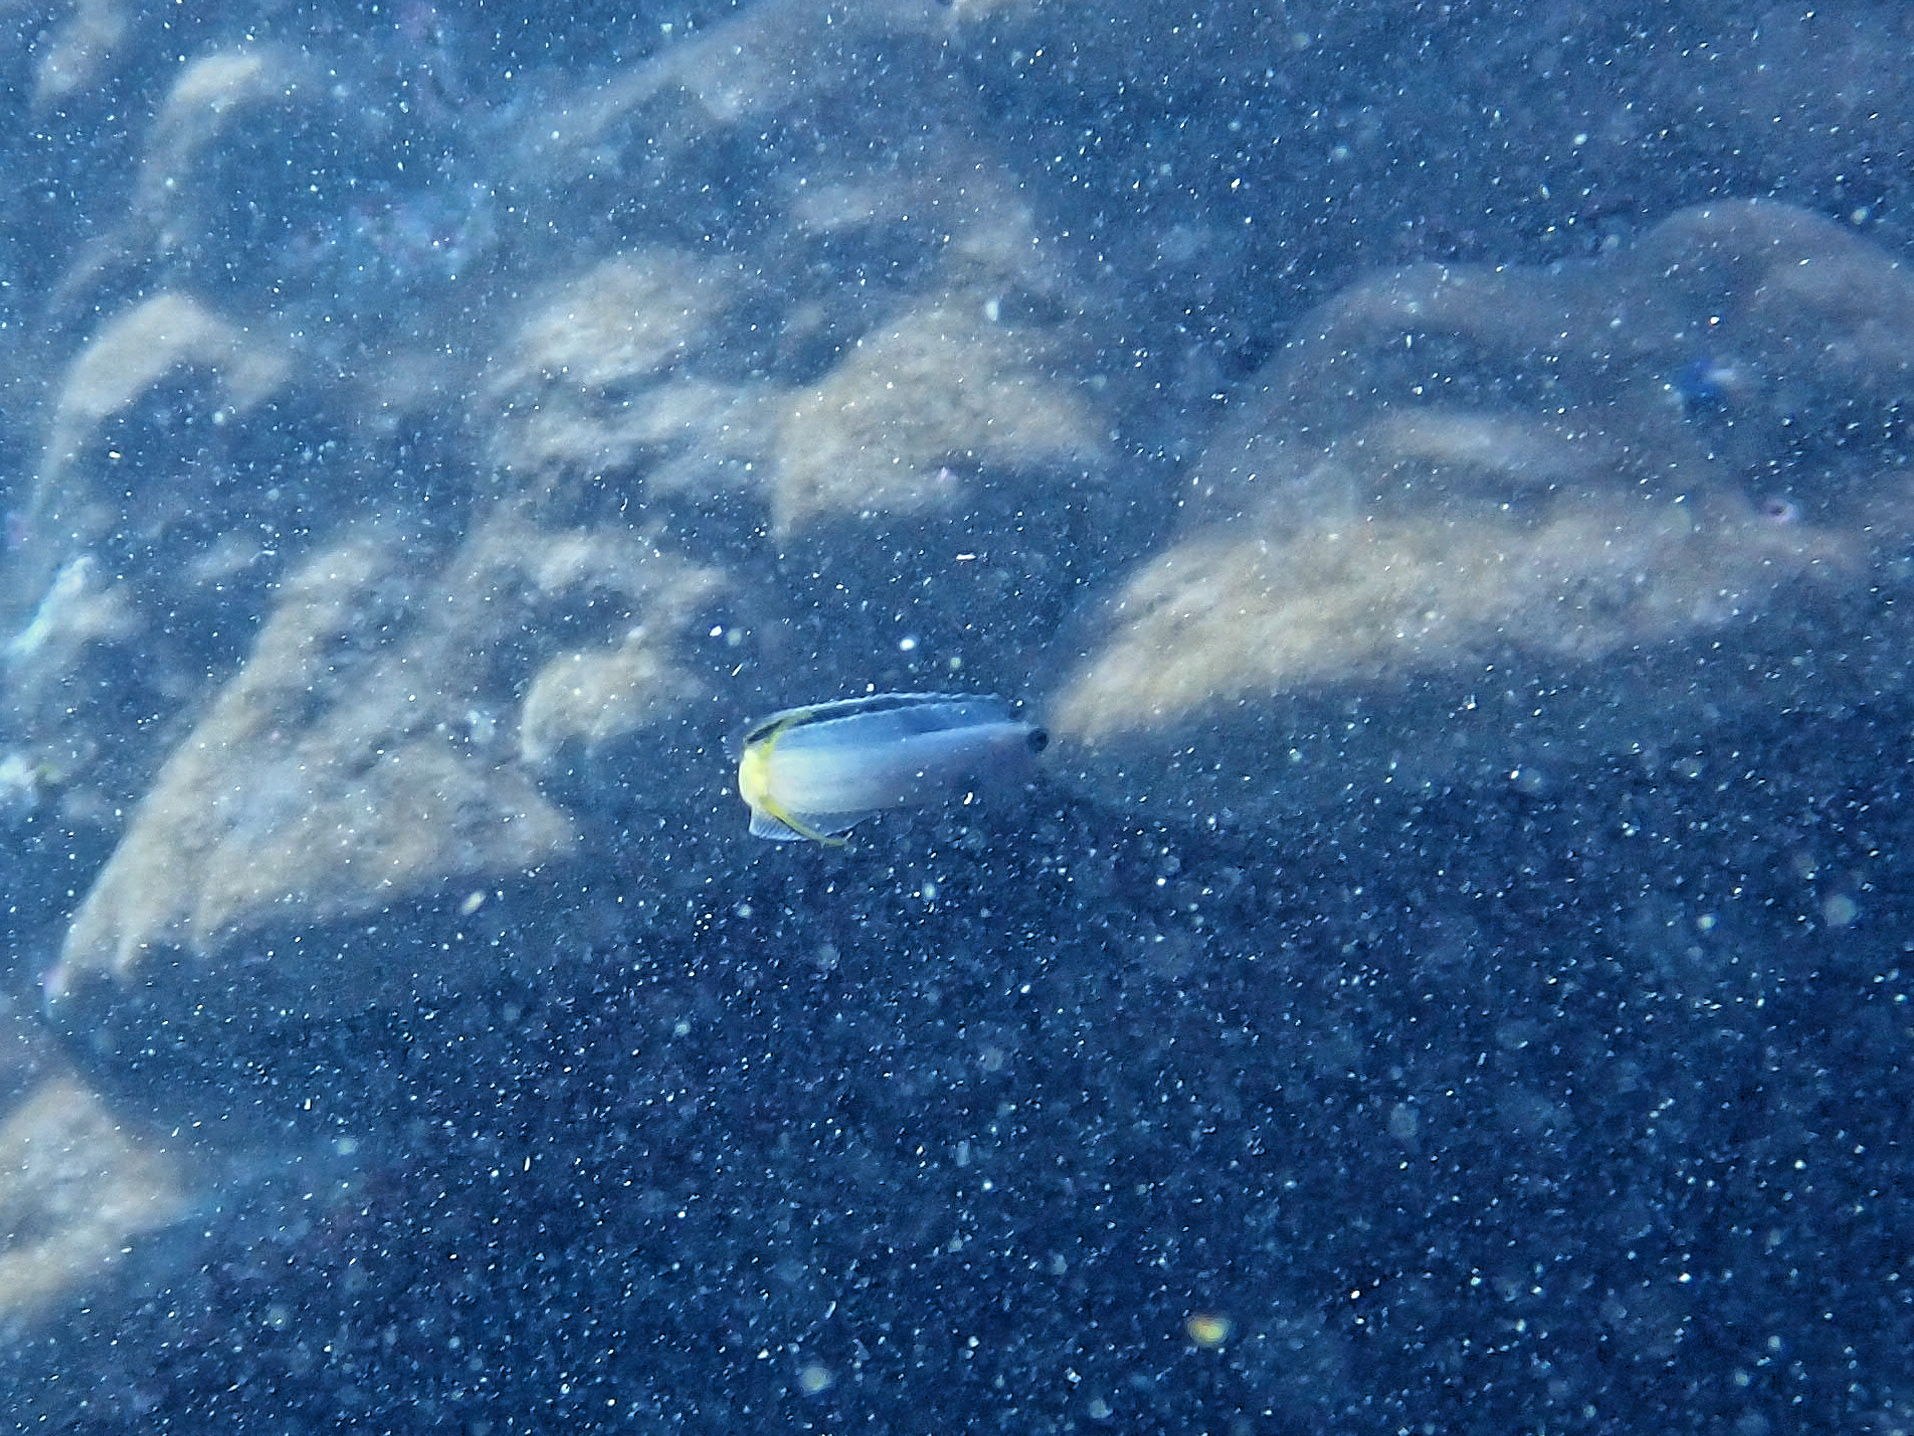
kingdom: Animalia
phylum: Chordata
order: Perciformes
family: Blenniidae
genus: Plagiotremus
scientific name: Plagiotremus laudandus
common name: Bicolour fangblenny
